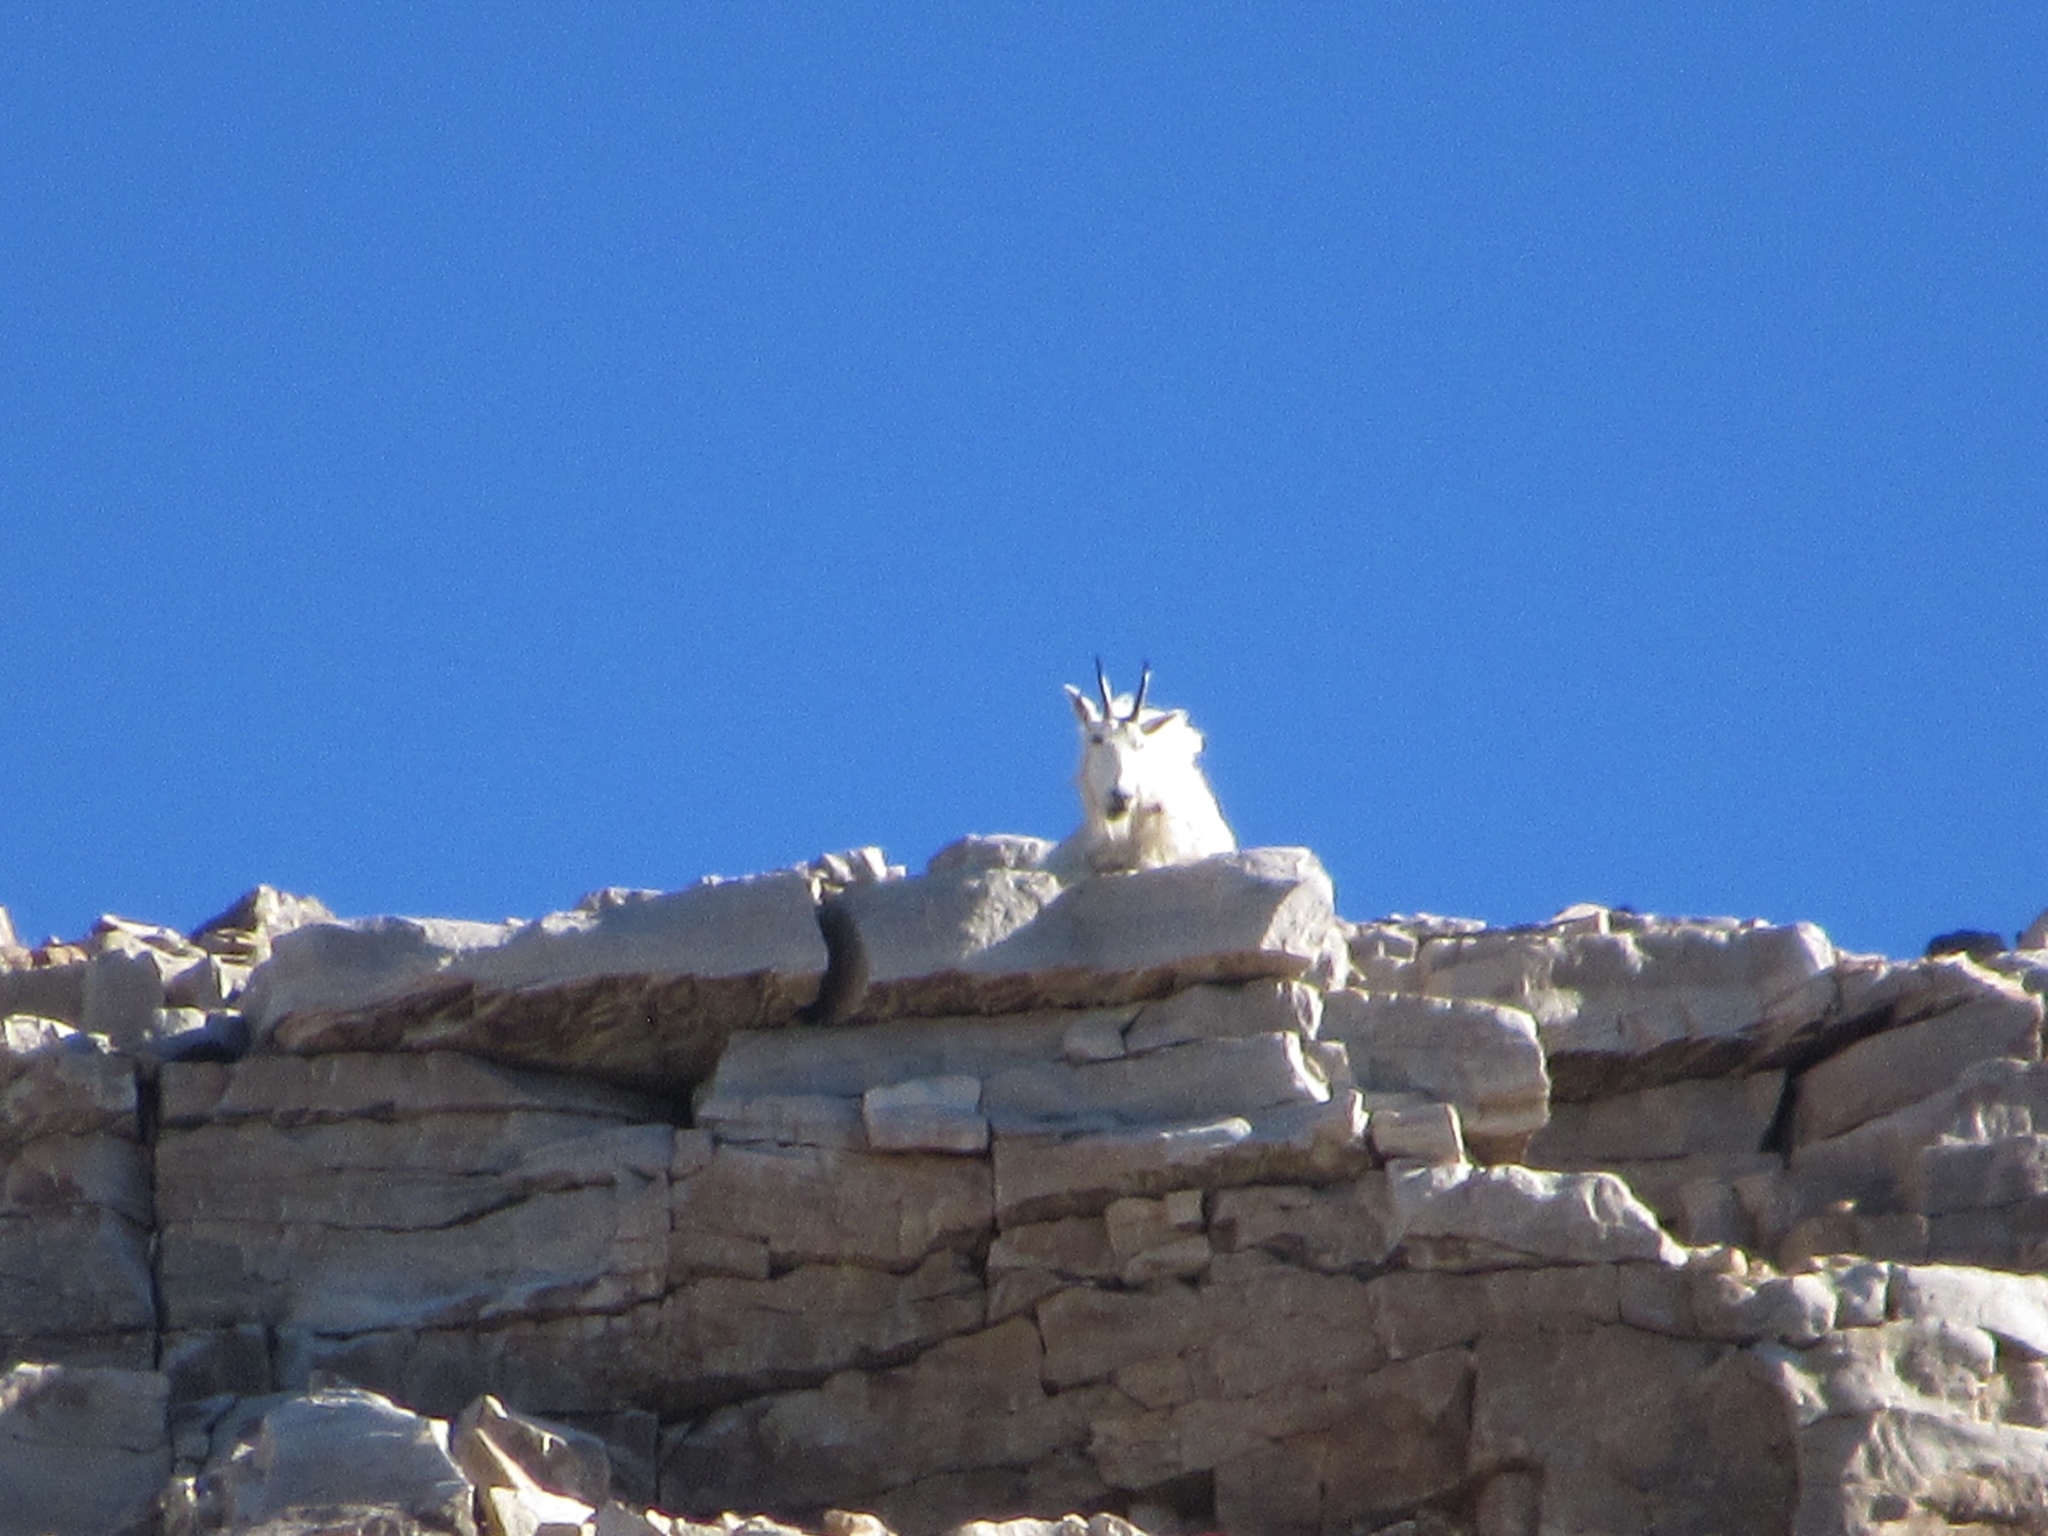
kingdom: Animalia
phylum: Chordata
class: Mammalia
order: Artiodactyla
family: Bovidae
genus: Oreamnos
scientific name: Oreamnos americanus
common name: Mountain goat
